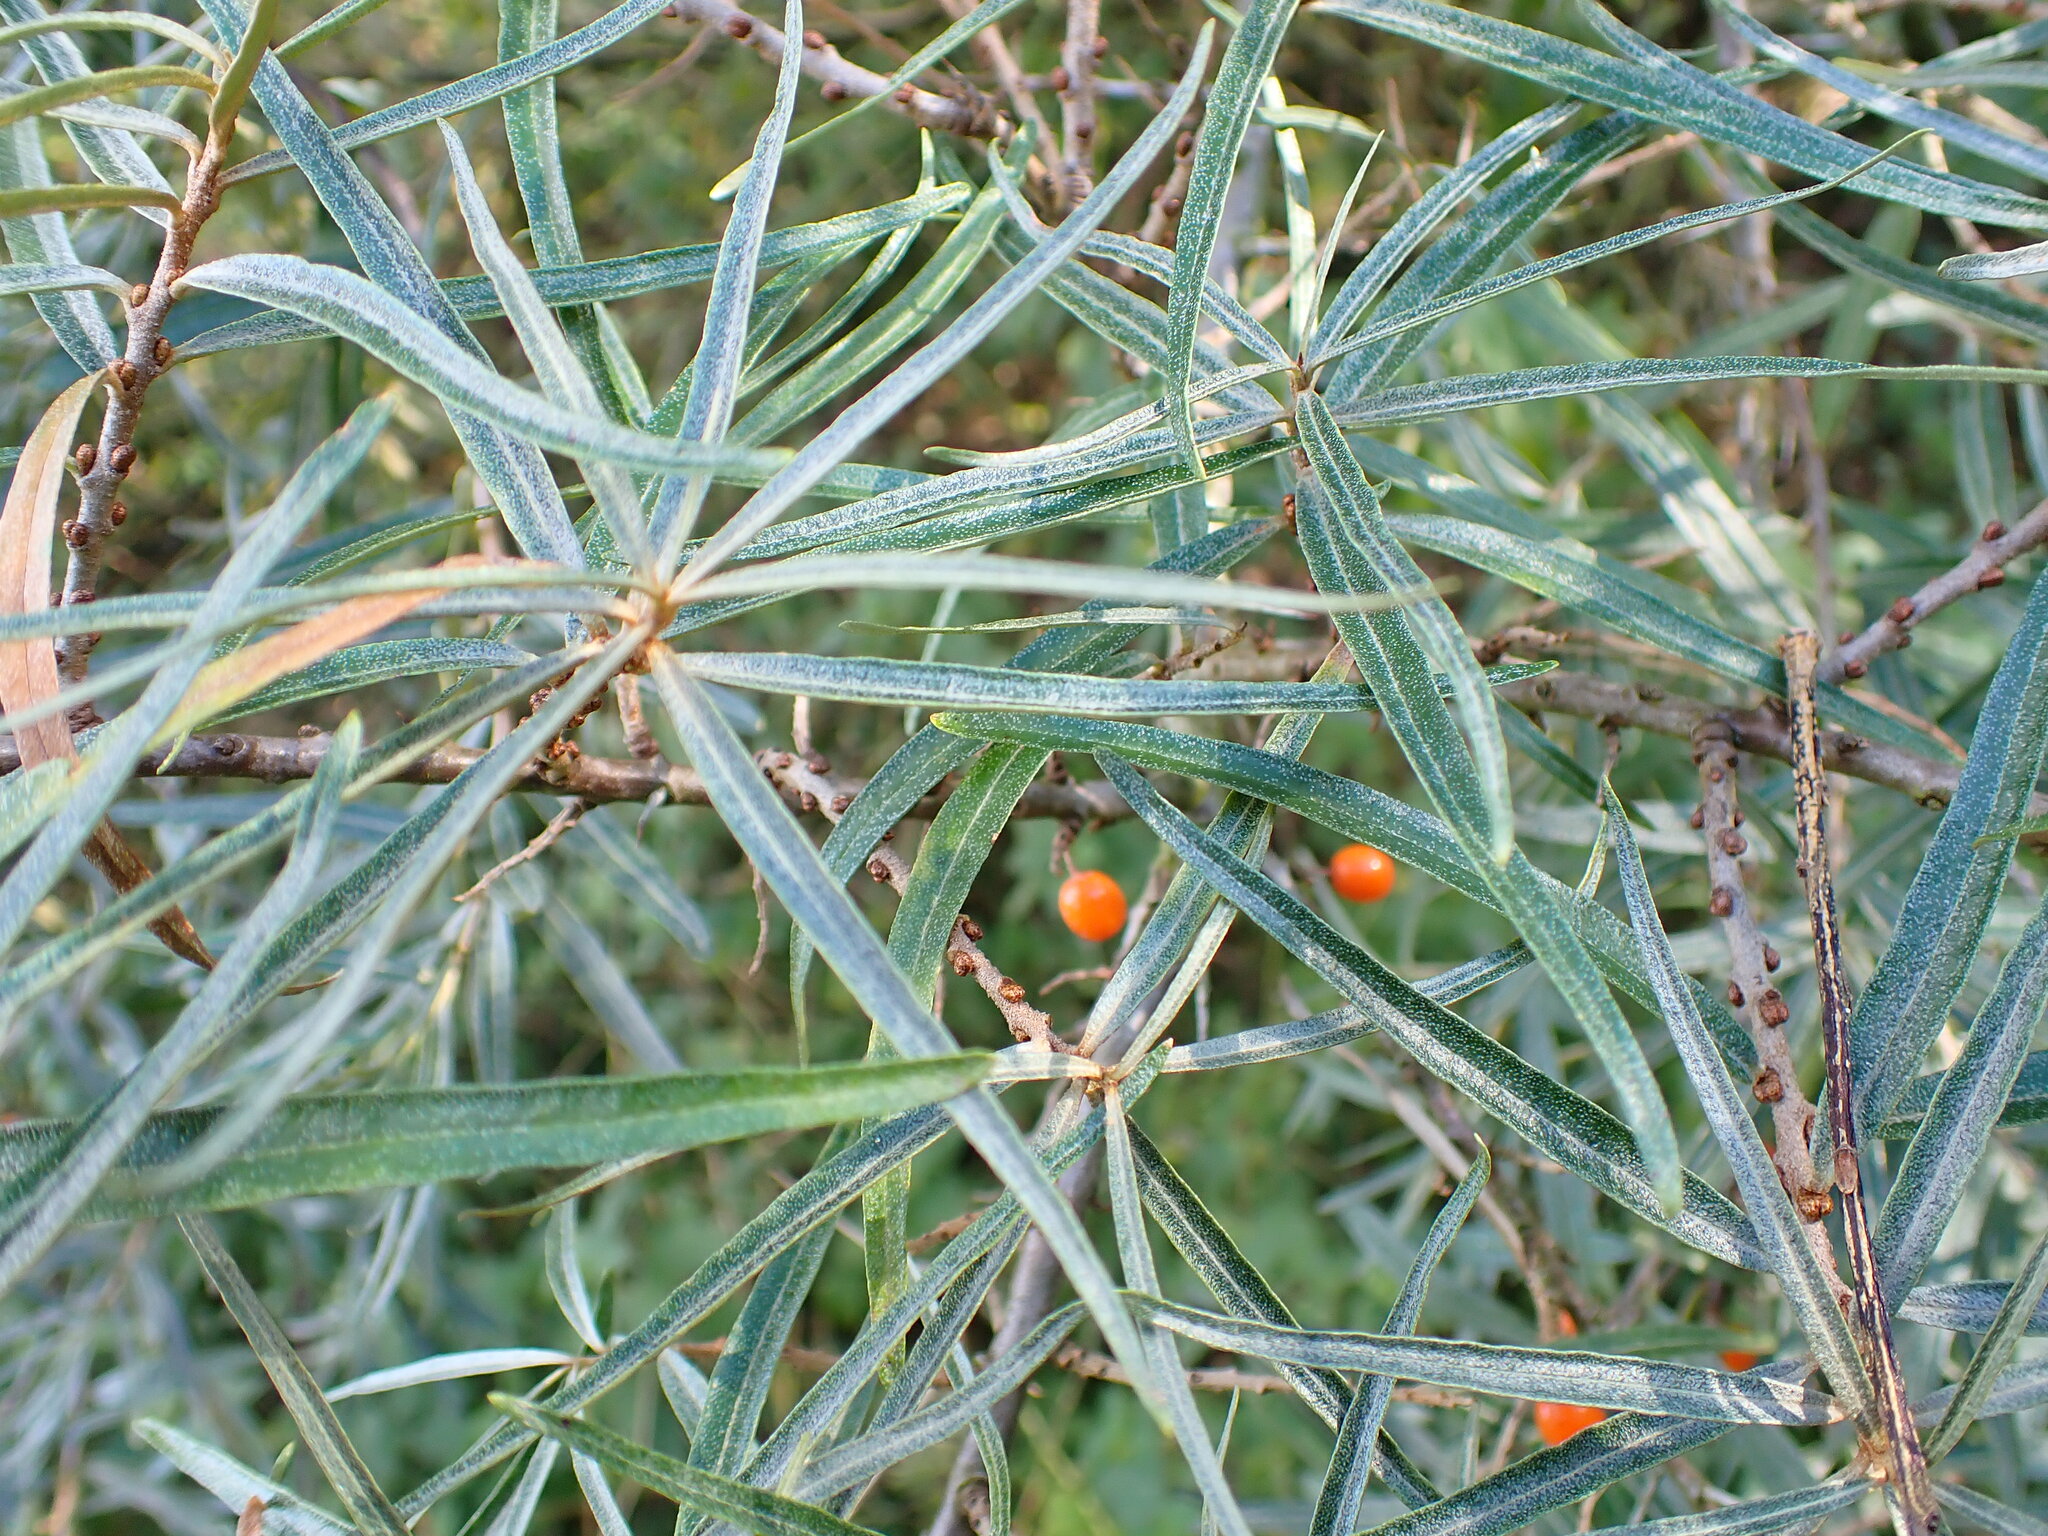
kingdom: Plantae
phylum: Tracheophyta
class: Magnoliopsida
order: Rosales
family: Elaeagnaceae
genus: Hippophae
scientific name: Hippophae rhamnoides
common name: Sea-buckthorn
